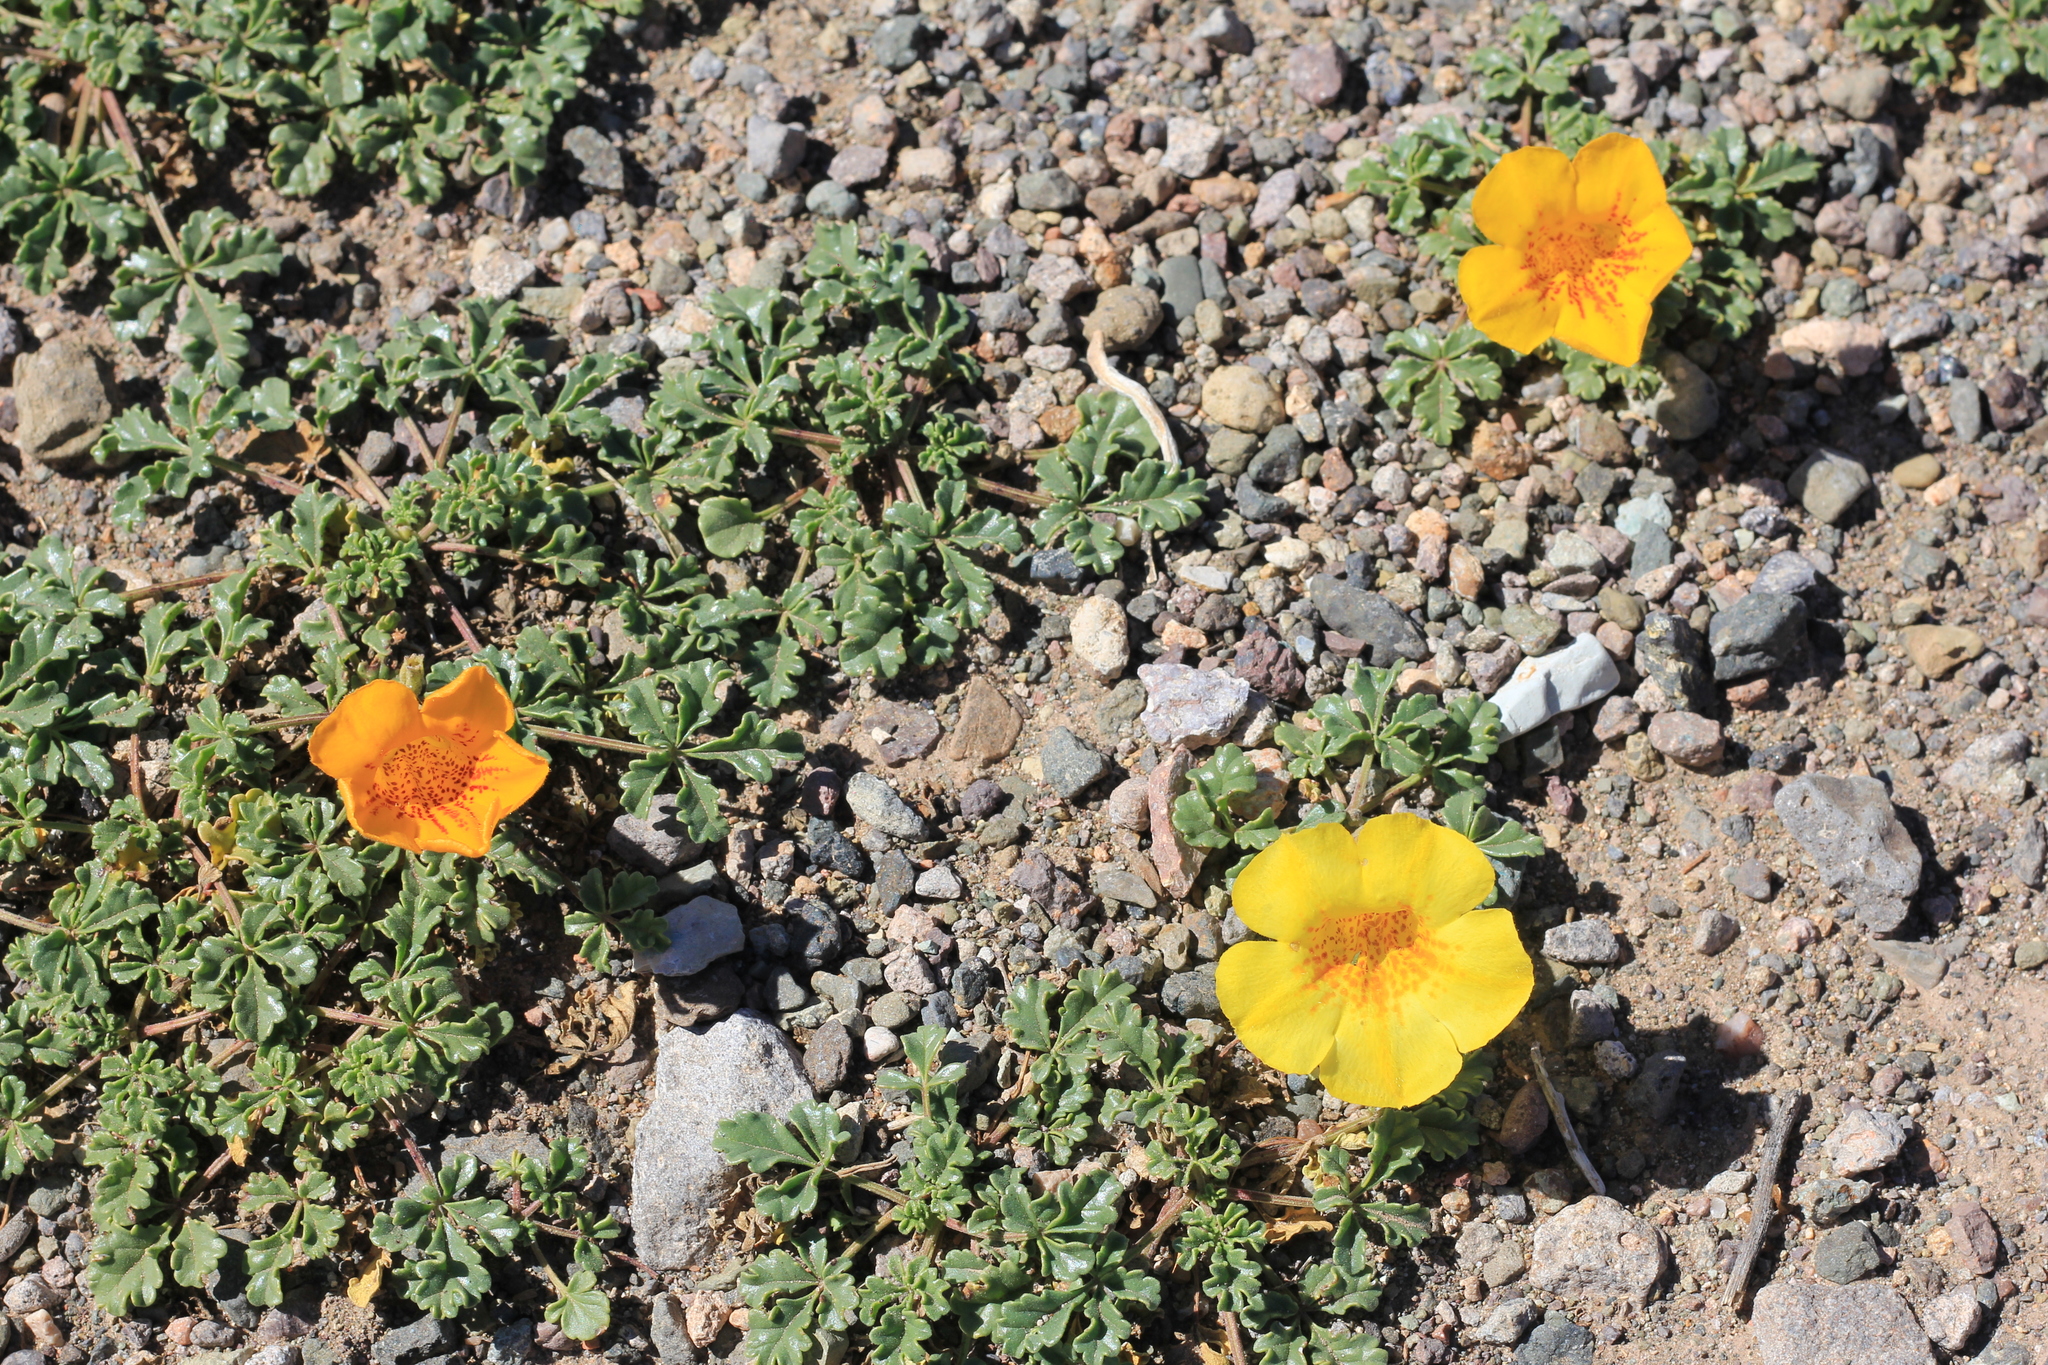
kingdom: Plantae
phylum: Tracheophyta
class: Magnoliopsida
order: Lamiales
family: Bignoniaceae
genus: Argylia
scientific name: Argylia uspallatensis
